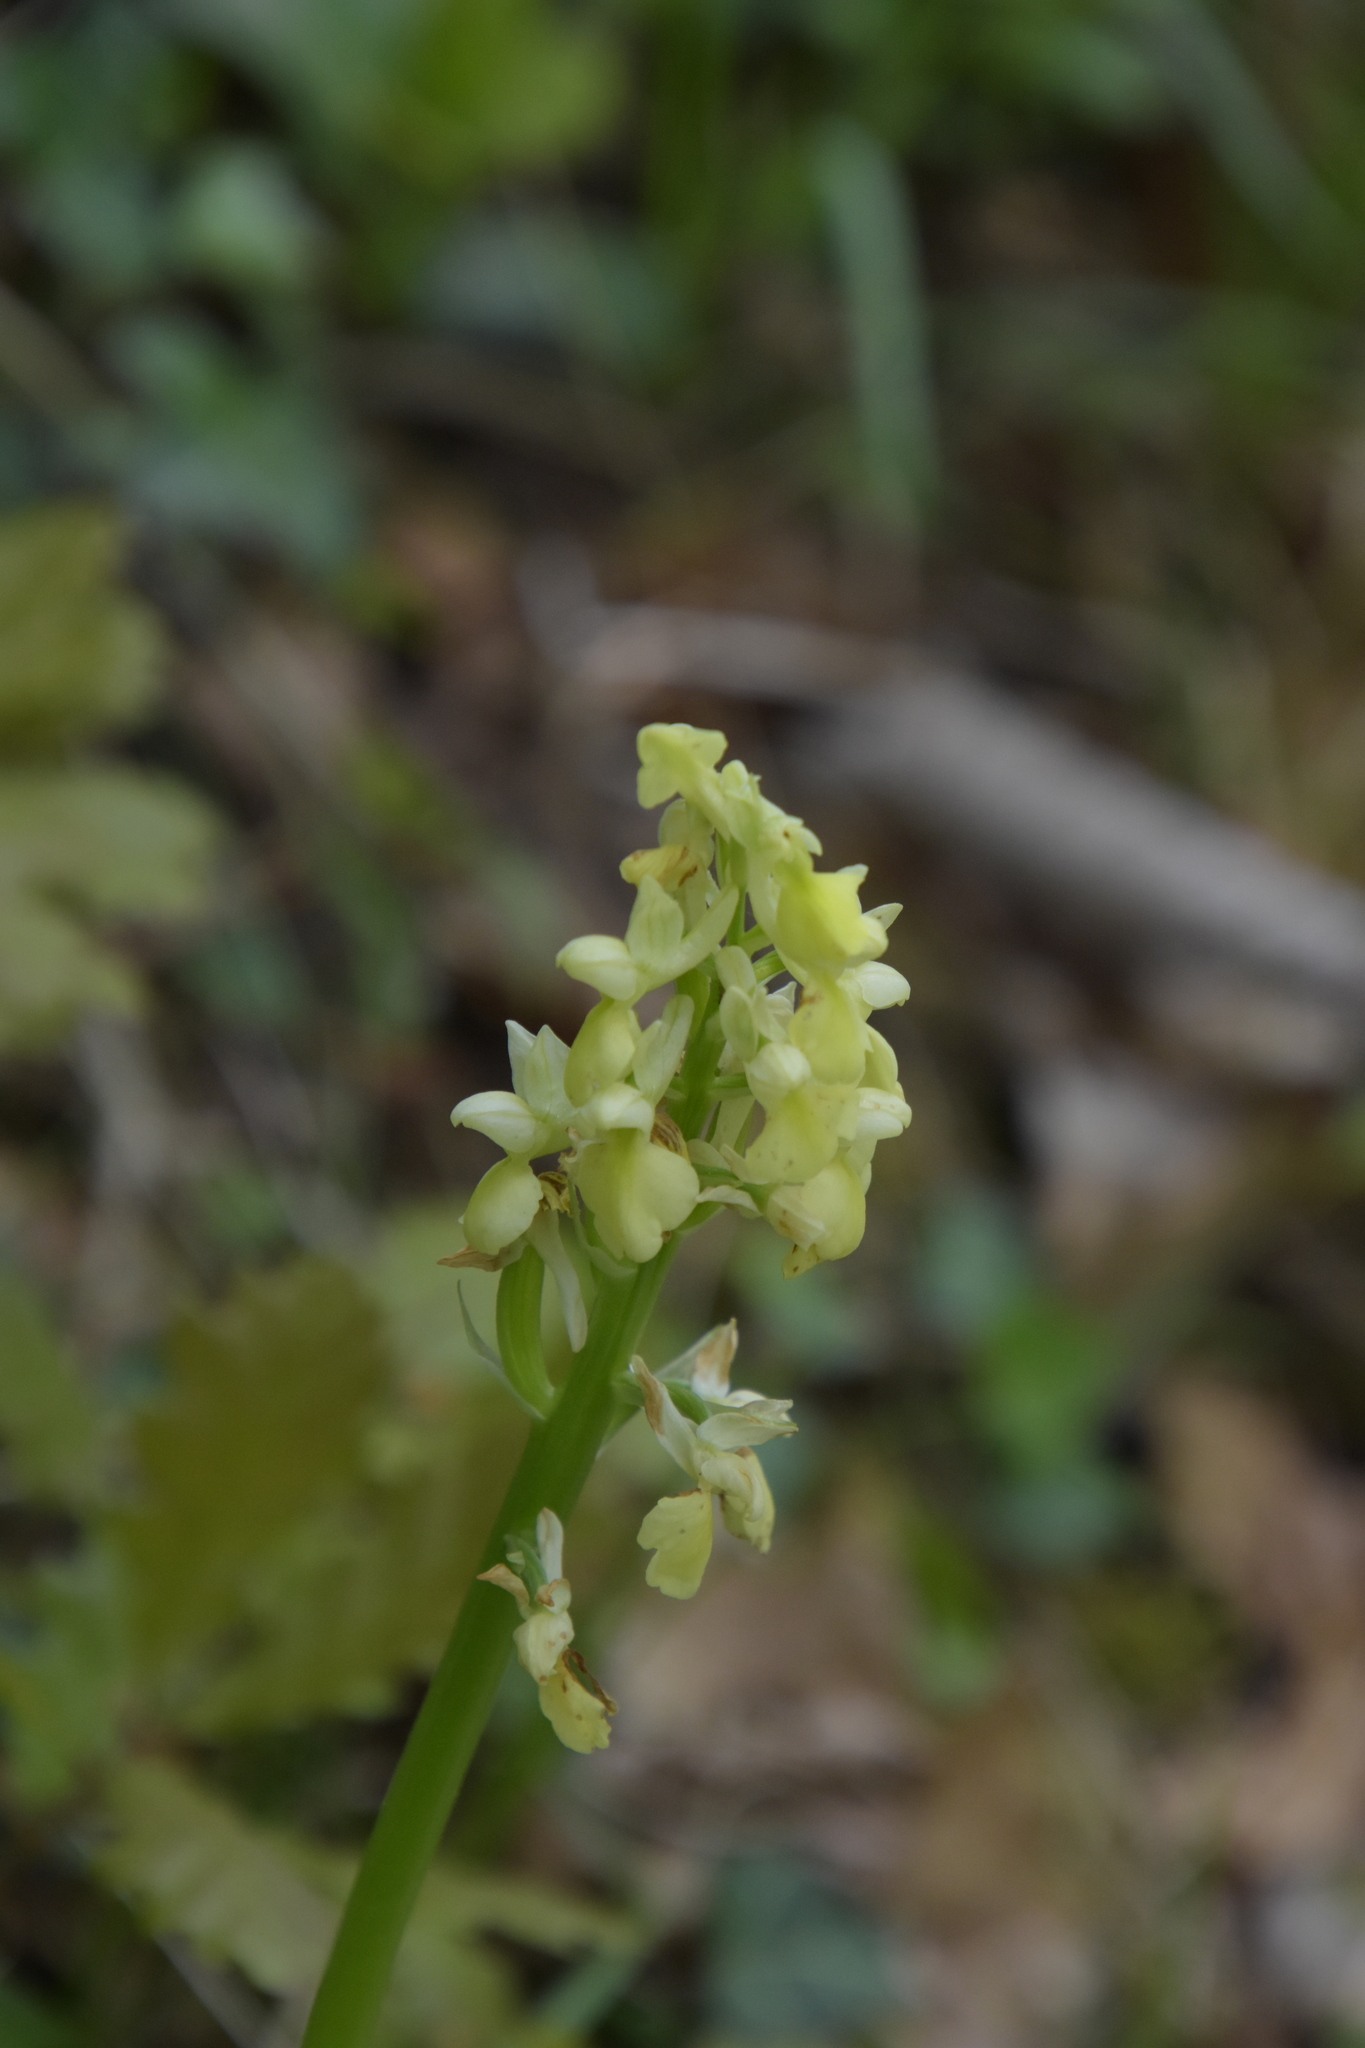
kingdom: Plantae
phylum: Tracheophyta
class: Liliopsida
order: Asparagales
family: Orchidaceae
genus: Orchis
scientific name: Orchis pallens
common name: Pale-flowered orchid
